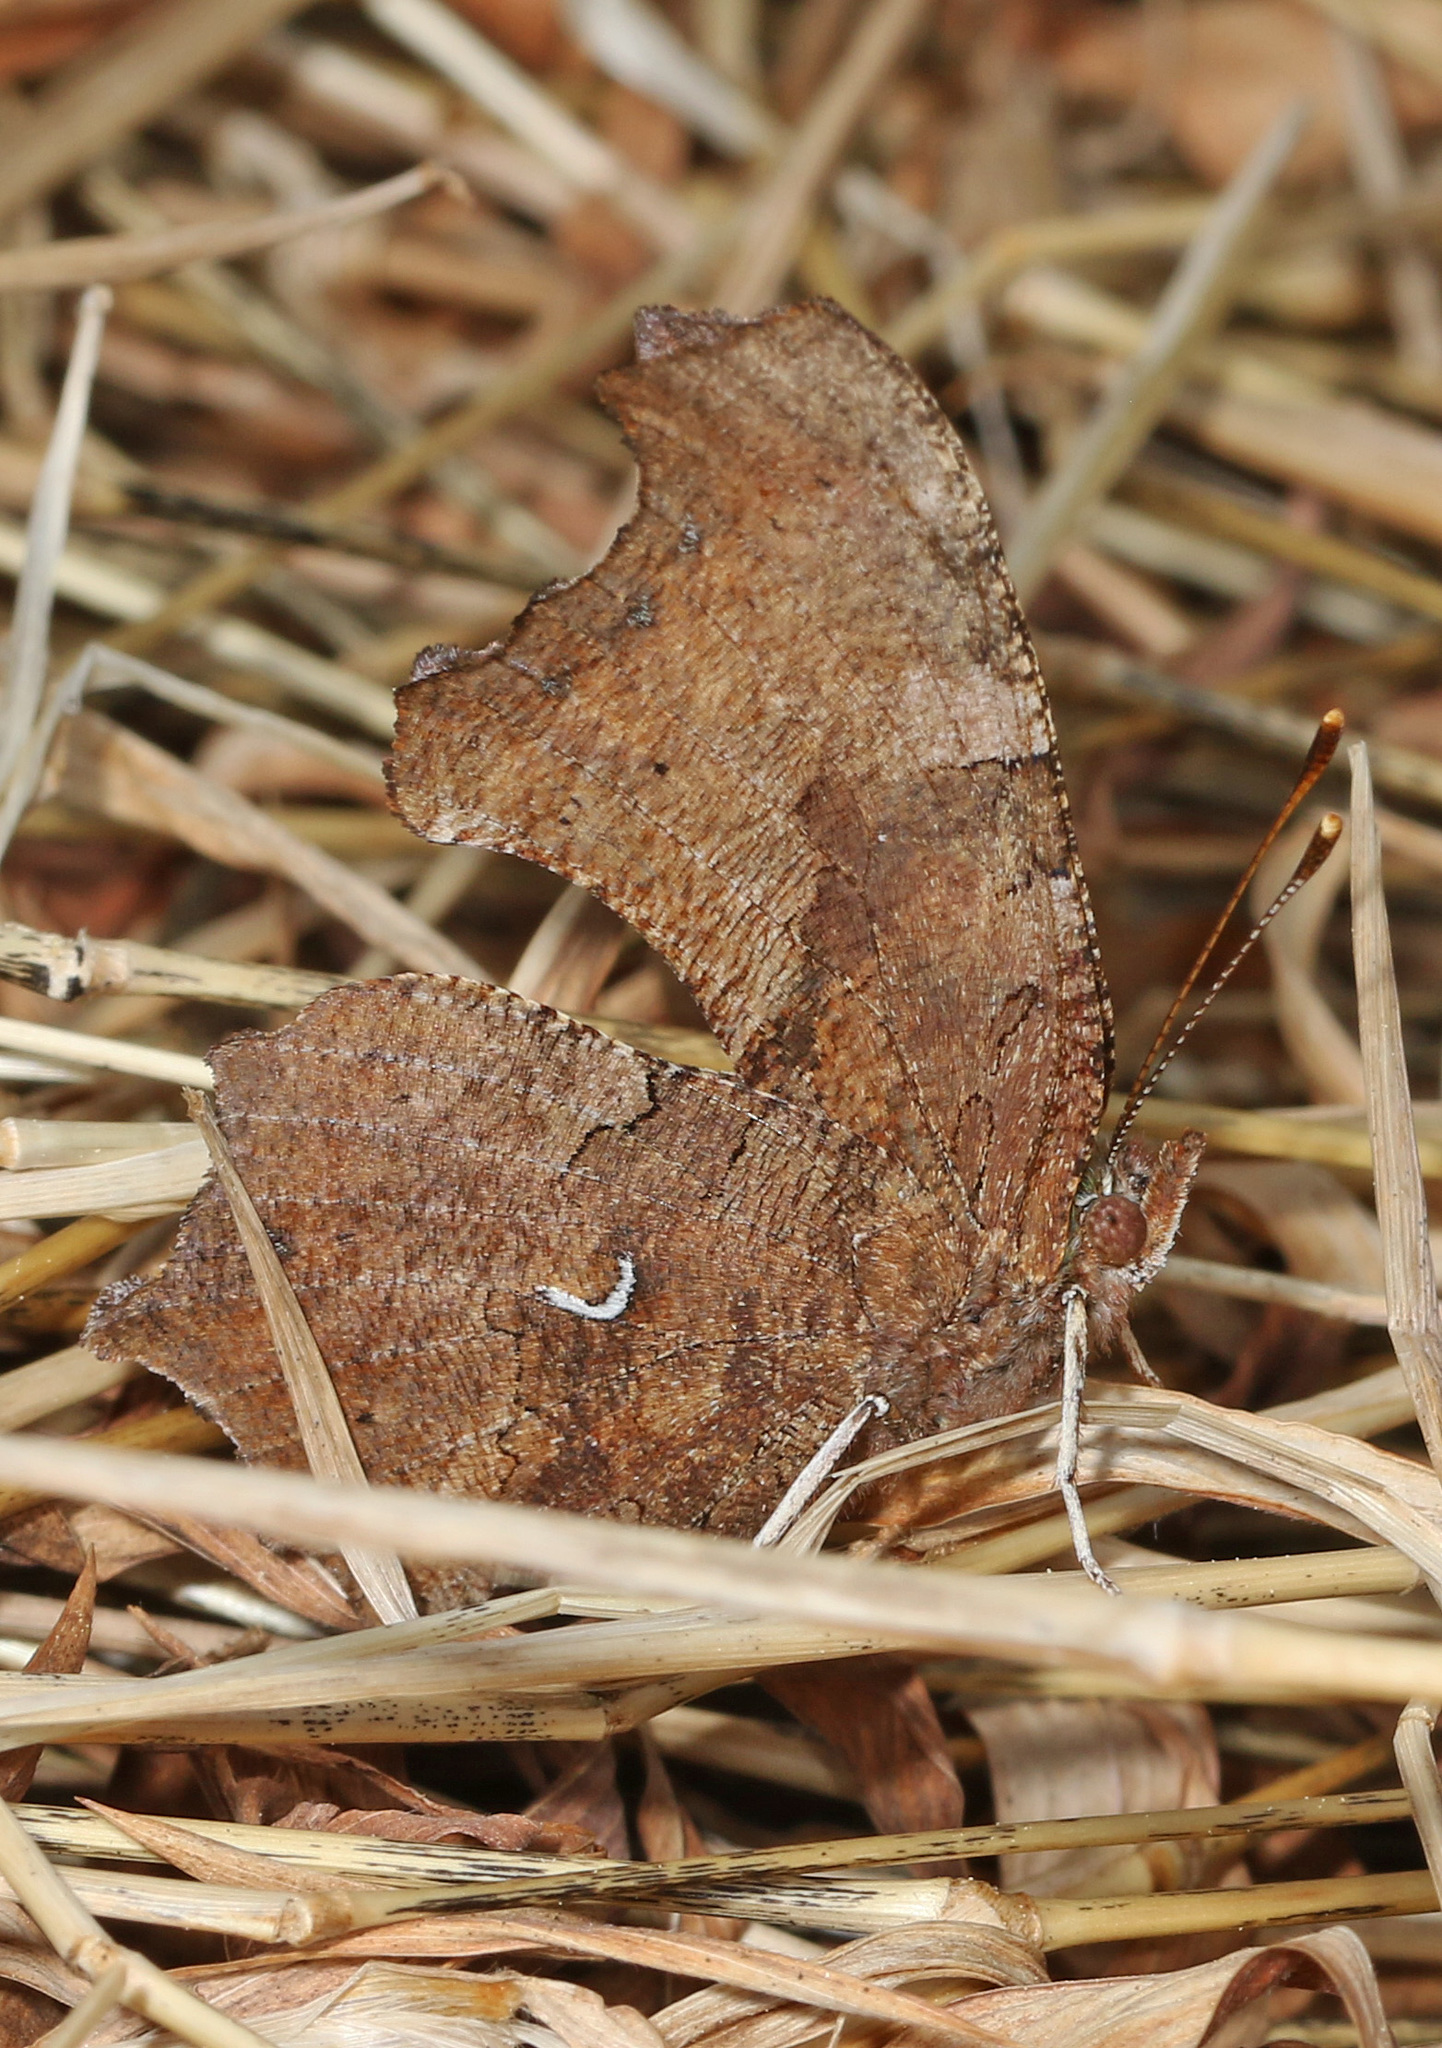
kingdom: Animalia
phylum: Arthropoda
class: Insecta
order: Lepidoptera
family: Nymphalidae
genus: Polygonia
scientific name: Polygonia comma
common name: Eastern comma
